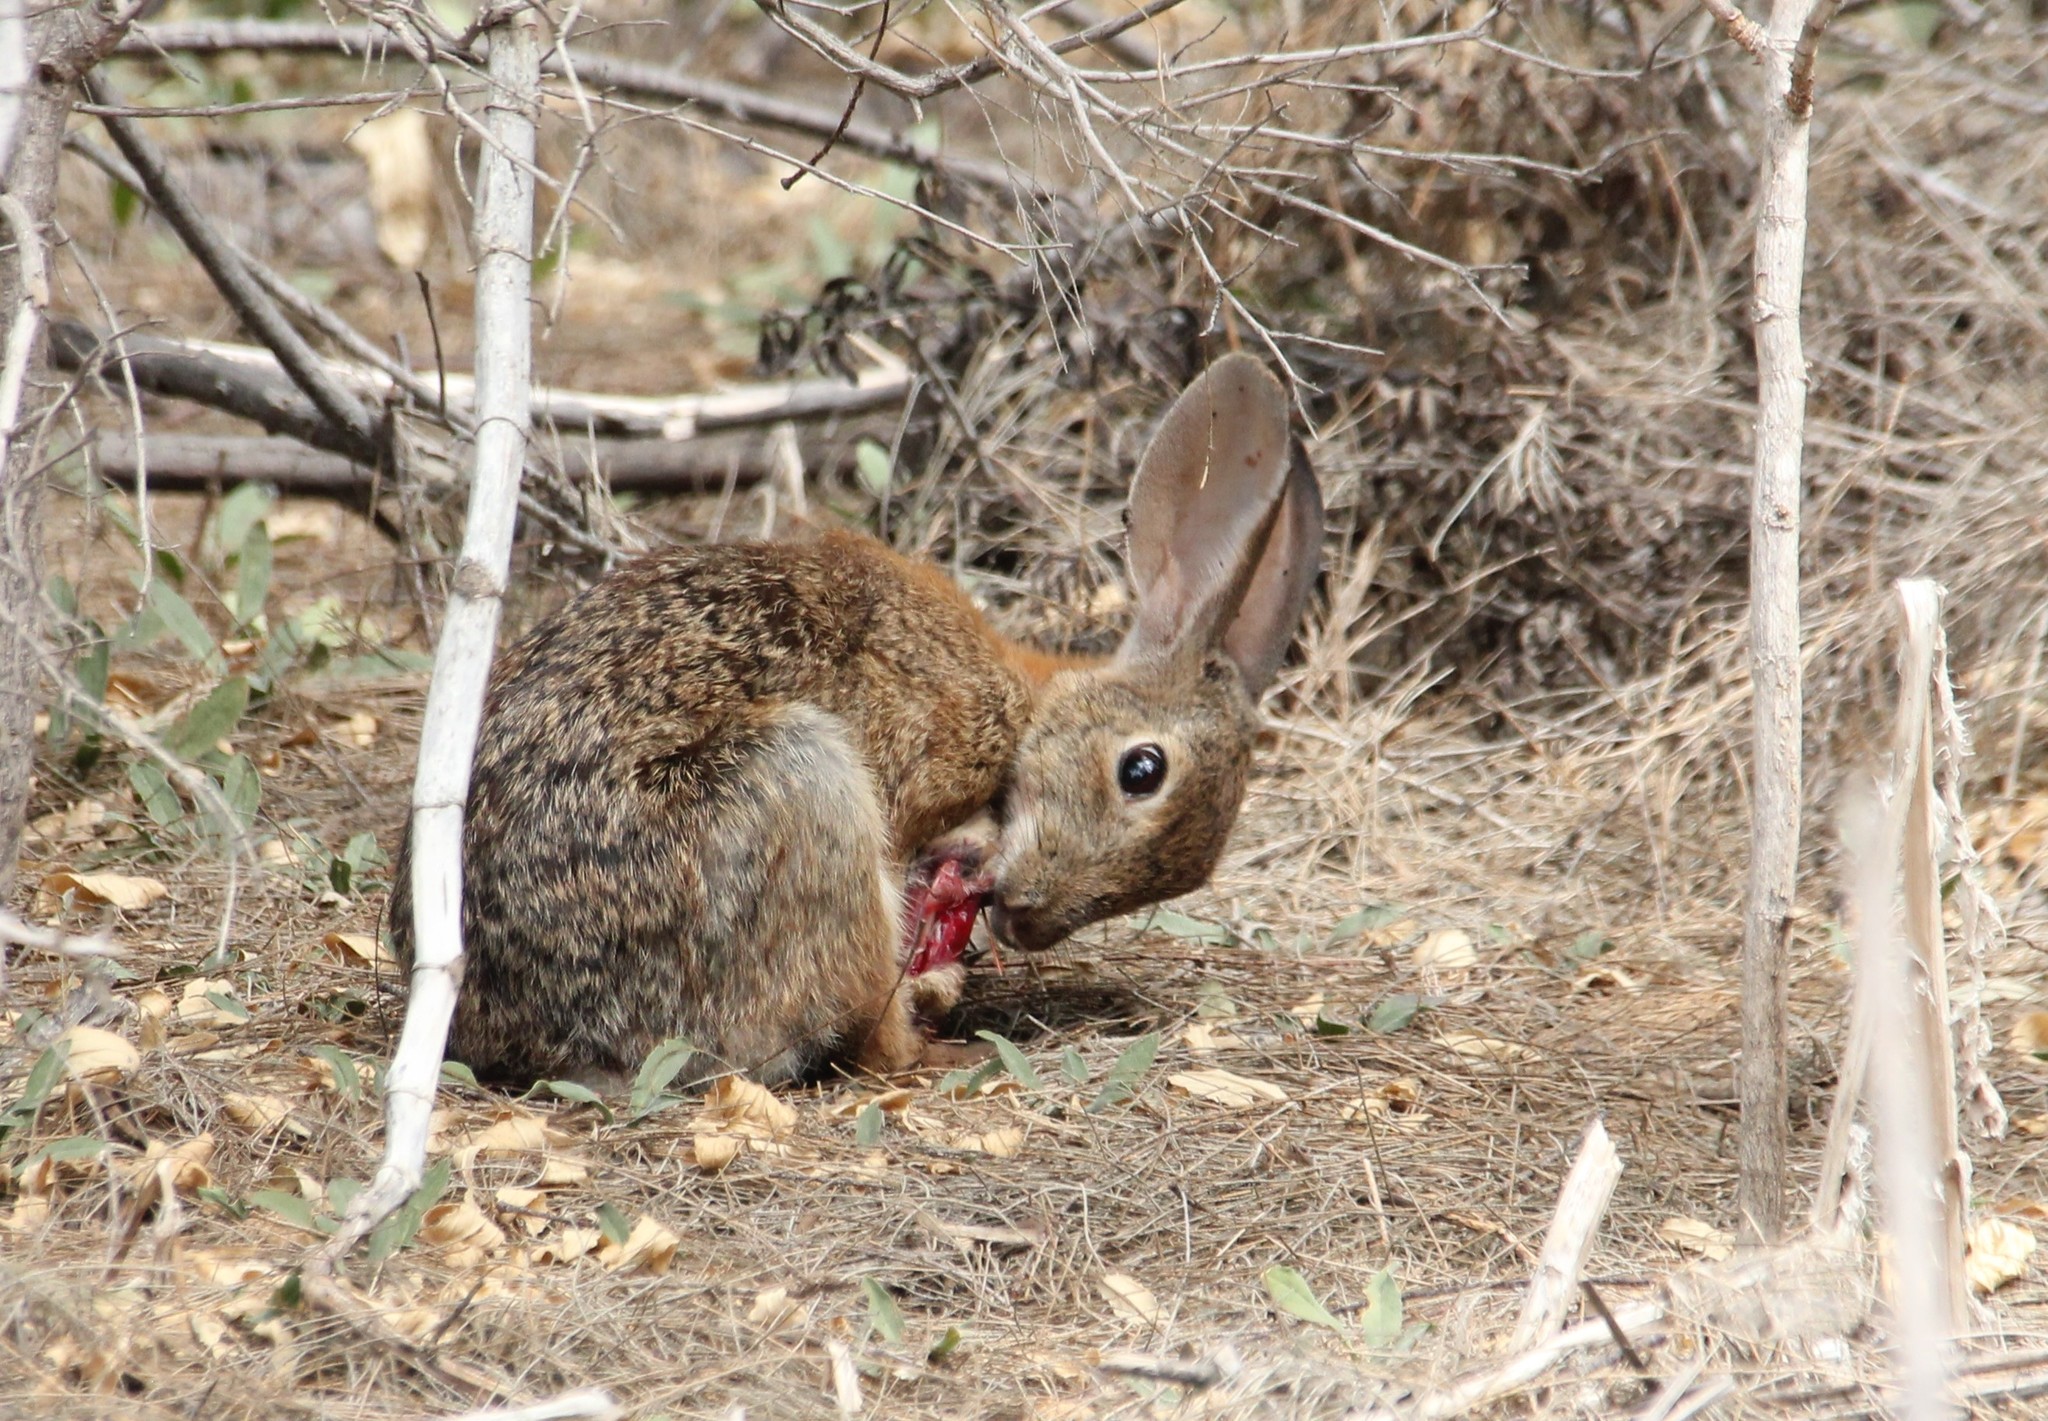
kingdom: Animalia
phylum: Chordata
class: Mammalia
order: Lagomorpha
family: Leporidae
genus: Sylvilagus
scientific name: Sylvilagus audubonii
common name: Desert cottontail
